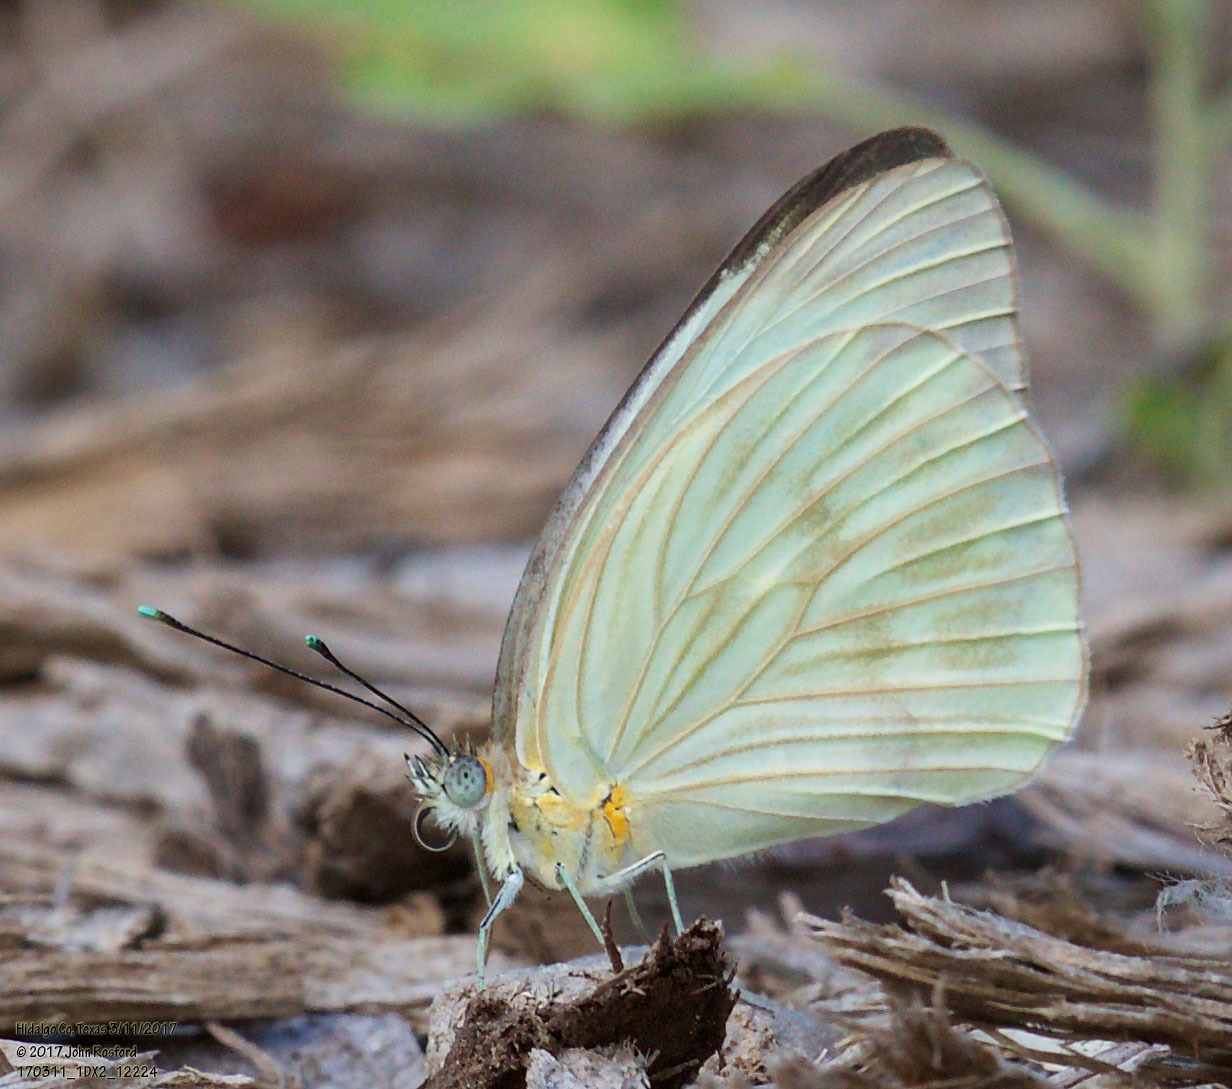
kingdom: Animalia
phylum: Arthropoda
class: Insecta
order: Lepidoptera
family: Pieridae
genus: Ascia
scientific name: Ascia monuste
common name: Great southern white
